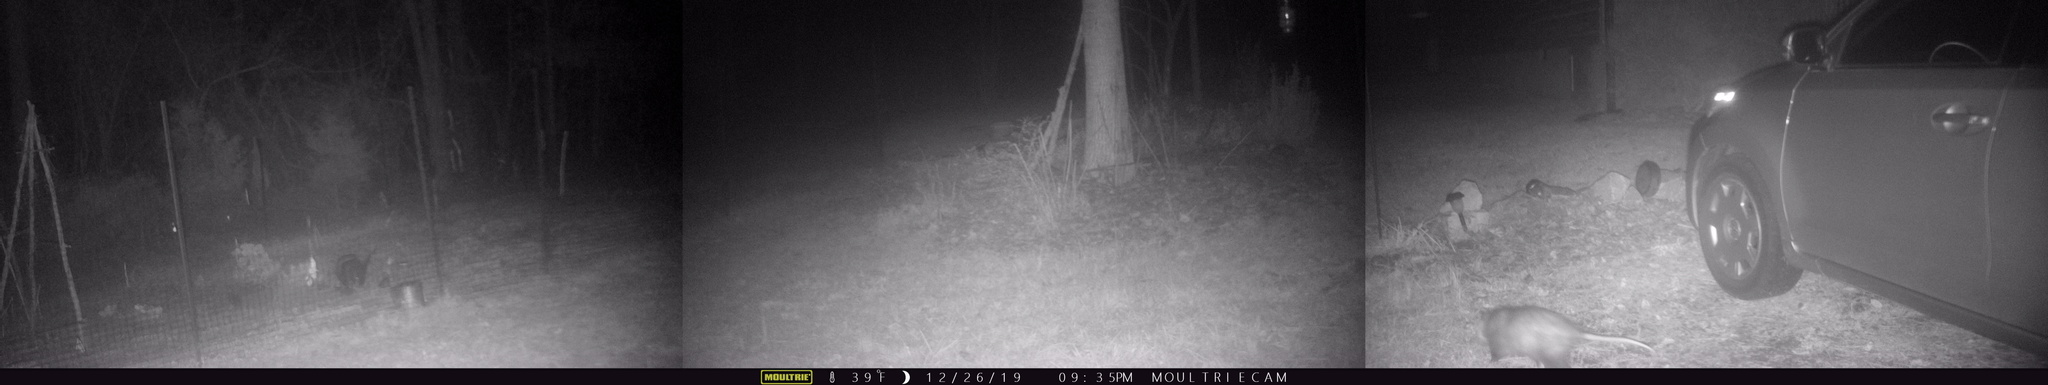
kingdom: Animalia
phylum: Chordata
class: Mammalia
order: Didelphimorphia
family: Didelphidae
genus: Didelphis
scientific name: Didelphis virginiana
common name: Virginia opossum
